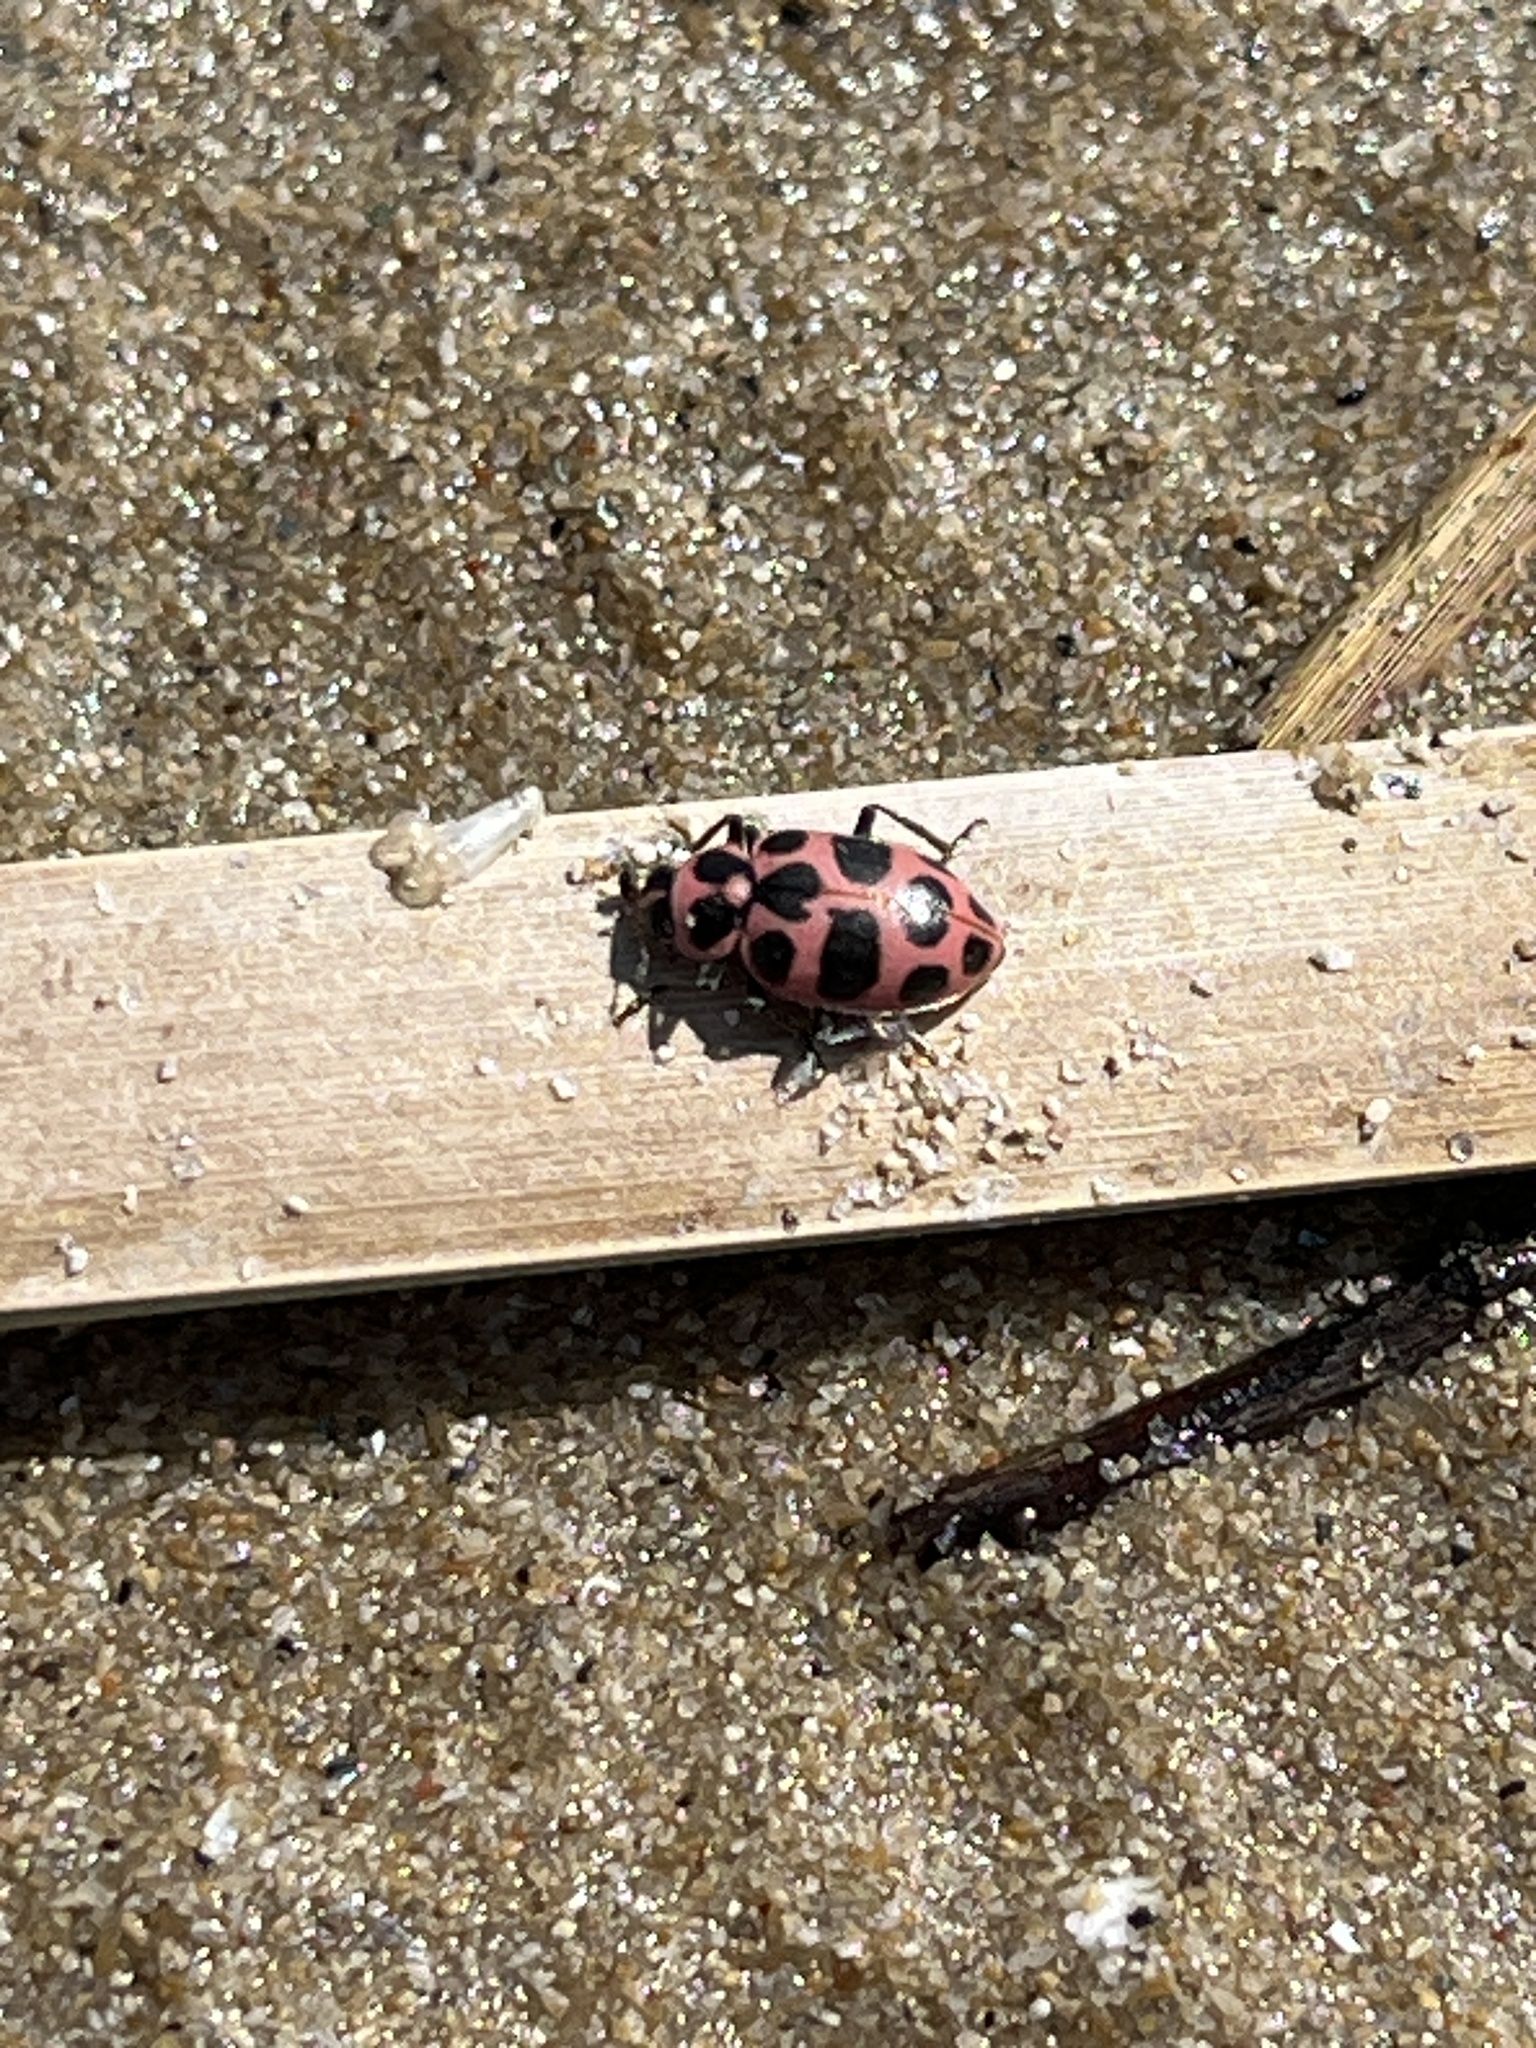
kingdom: Animalia
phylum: Arthropoda
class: Insecta
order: Coleoptera
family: Coccinellidae
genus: Coleomegilla
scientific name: Coleomegilla maculata
